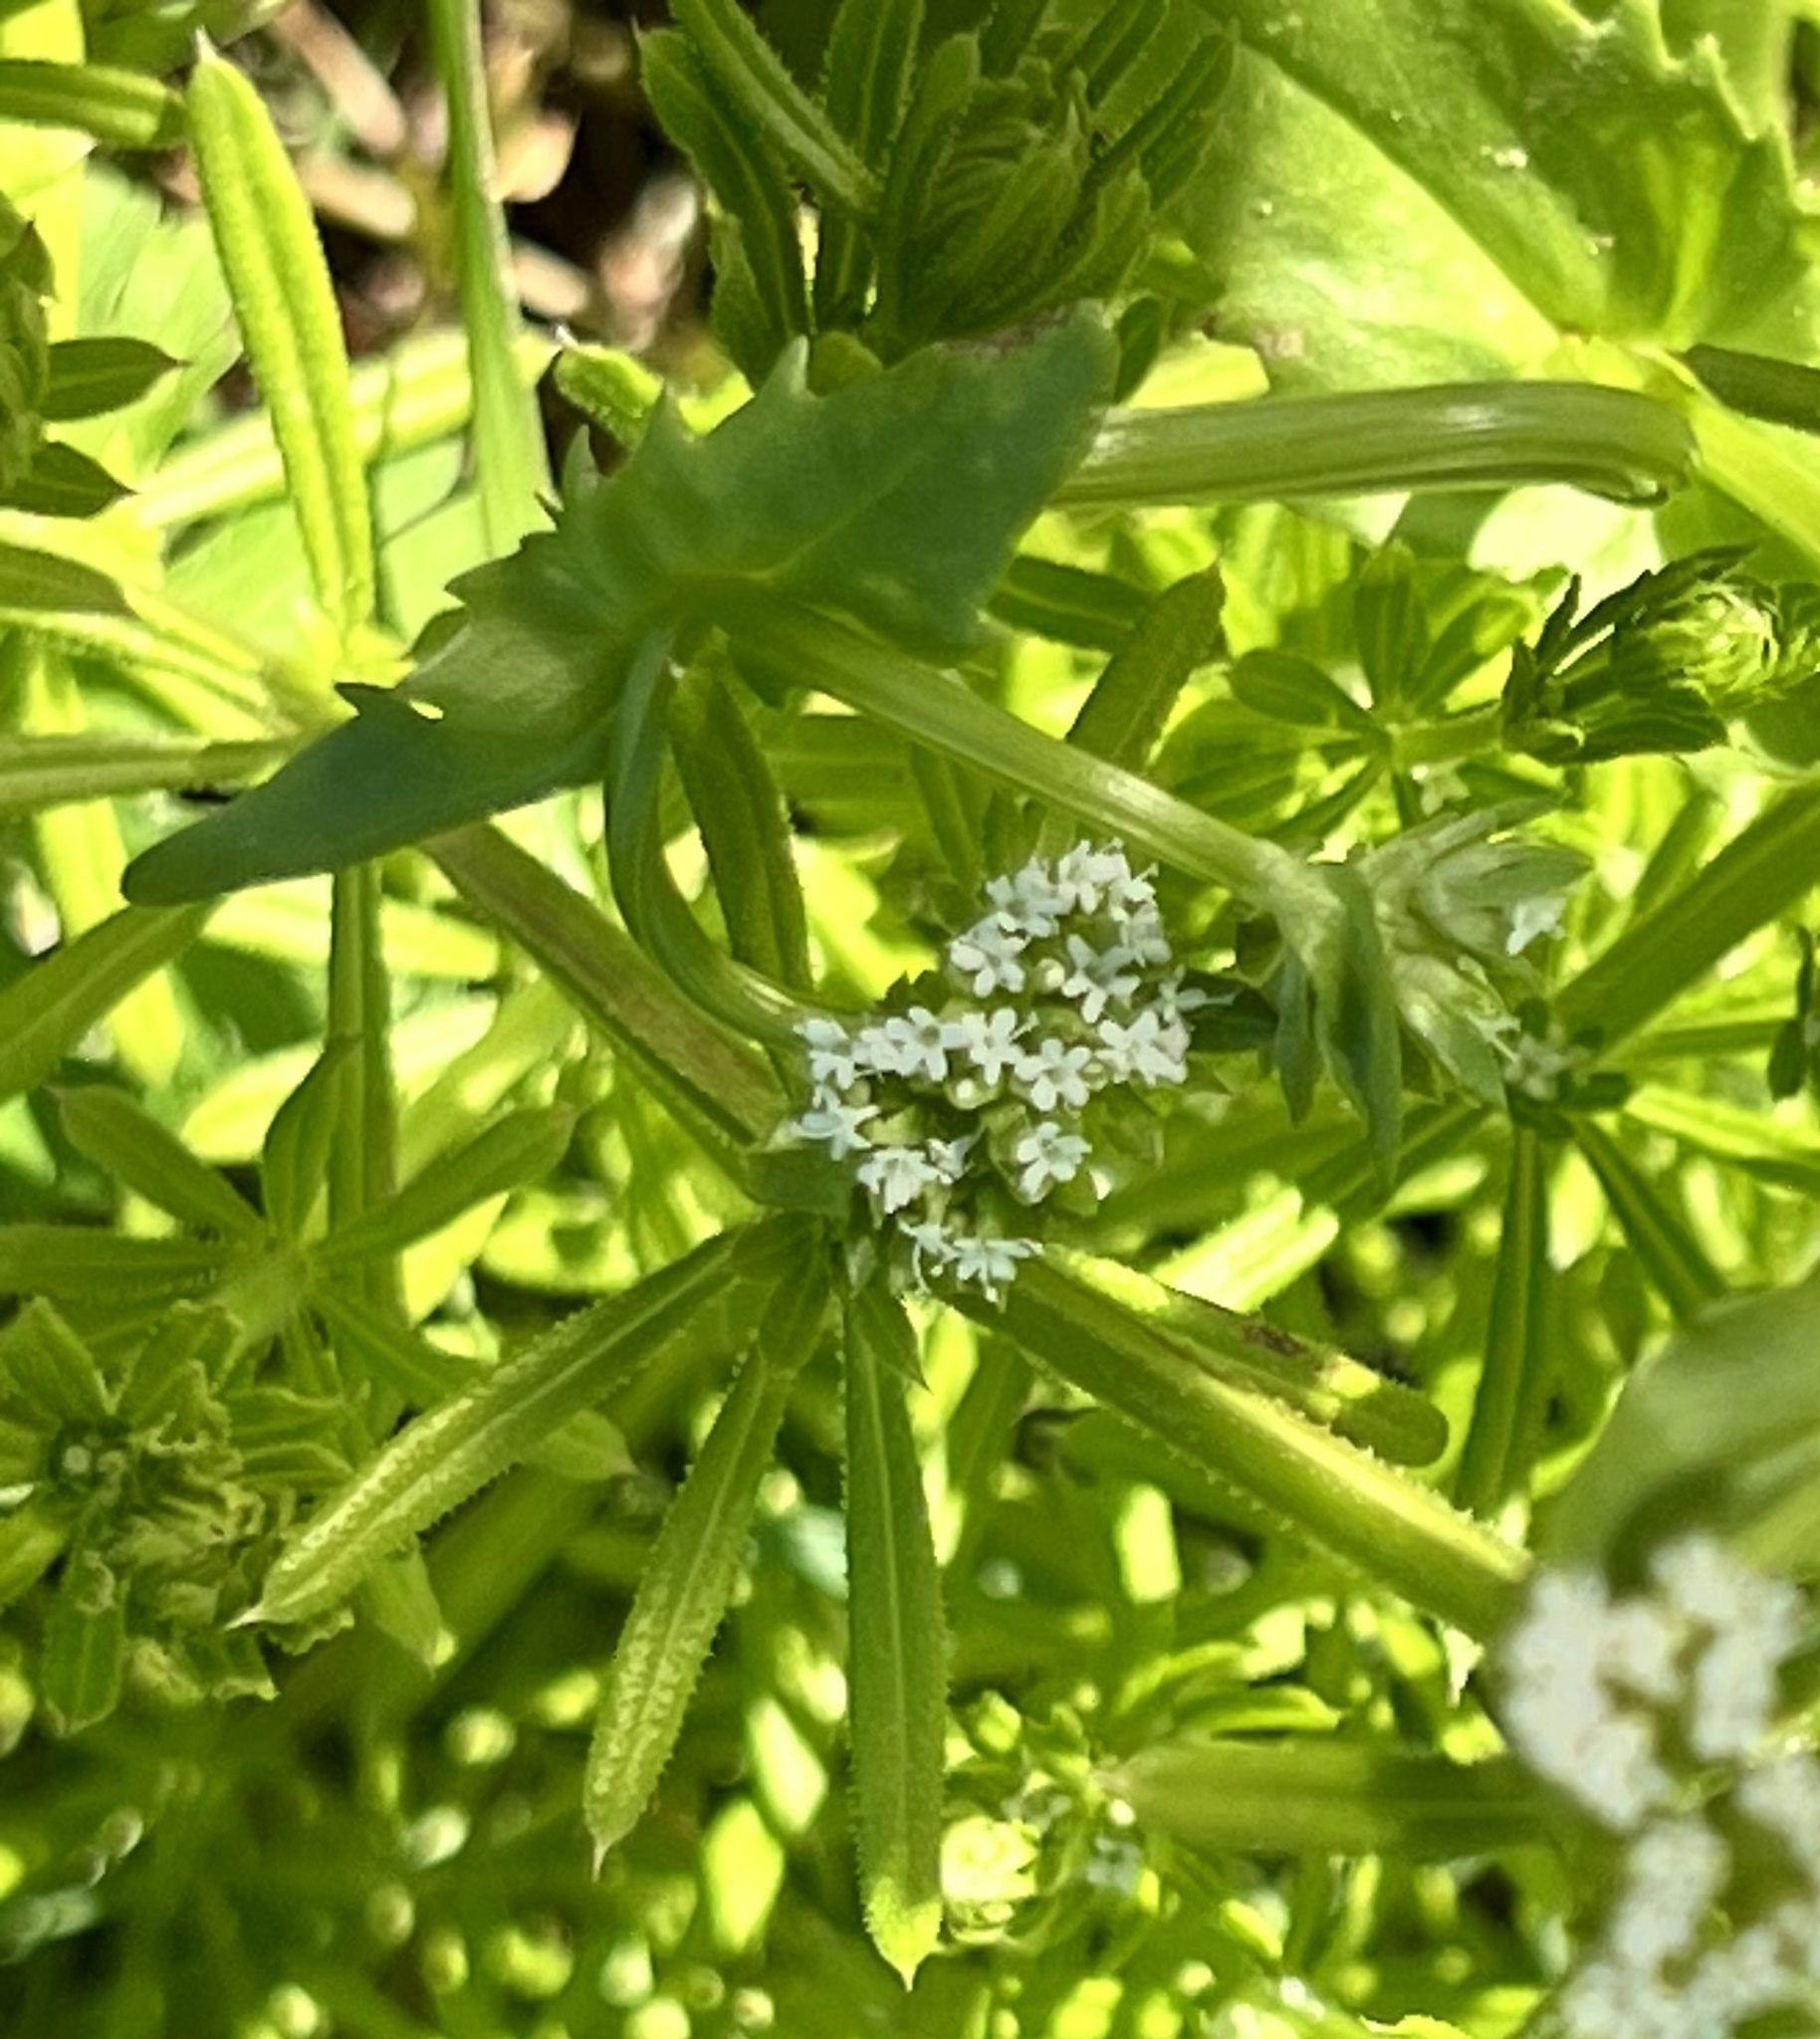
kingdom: Plantae
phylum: Tracheophyta
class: Magnoliopsida
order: Gentianales
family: Rubiaceae
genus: Galium
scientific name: Galium aparine
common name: Cleavers
